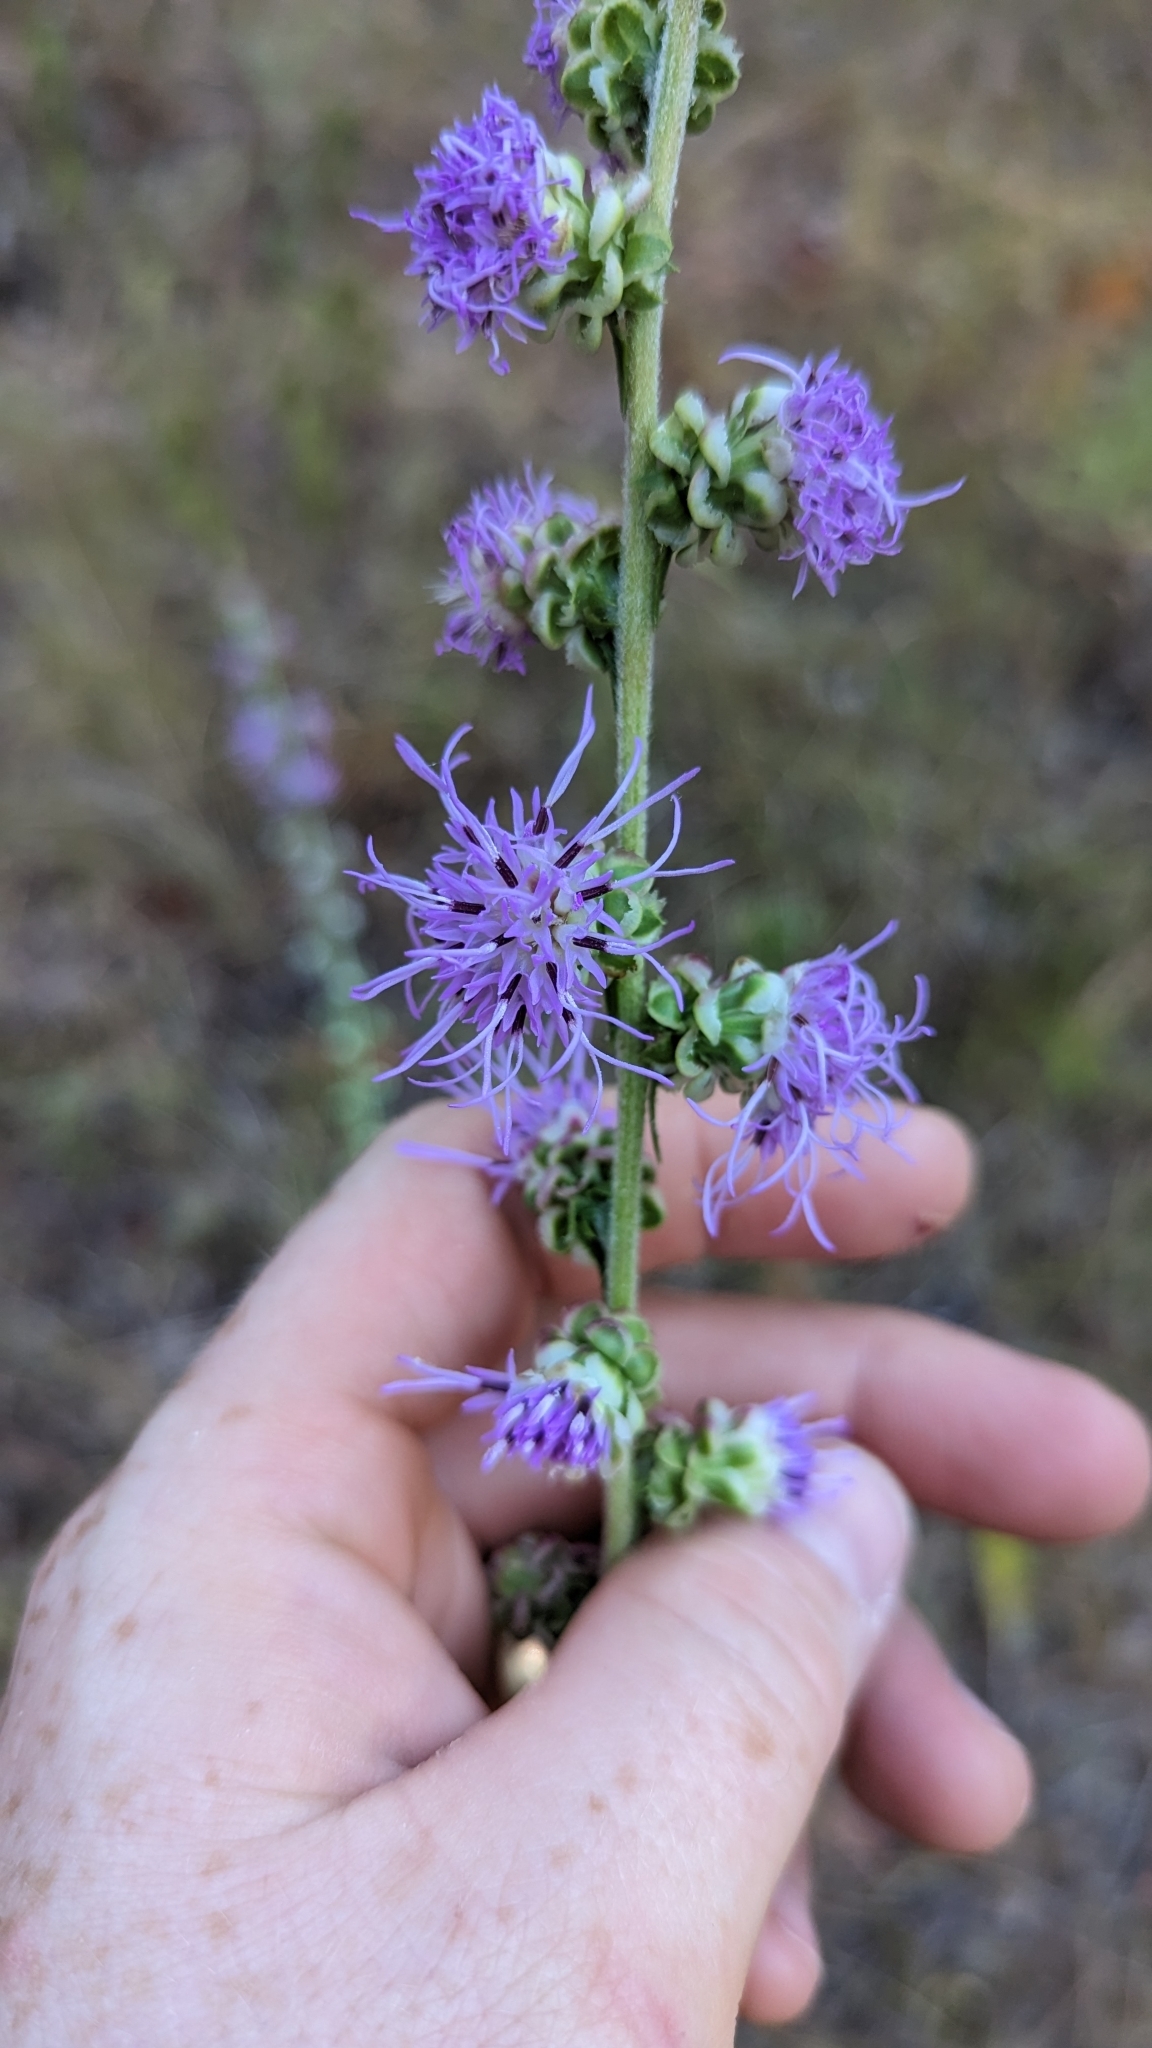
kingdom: Plantae
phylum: Tracheophyta
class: Magnoliopsida
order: Asterales
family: Asteraceae
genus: Liatris
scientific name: Liatris aspera
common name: Lacerate blazing-star
